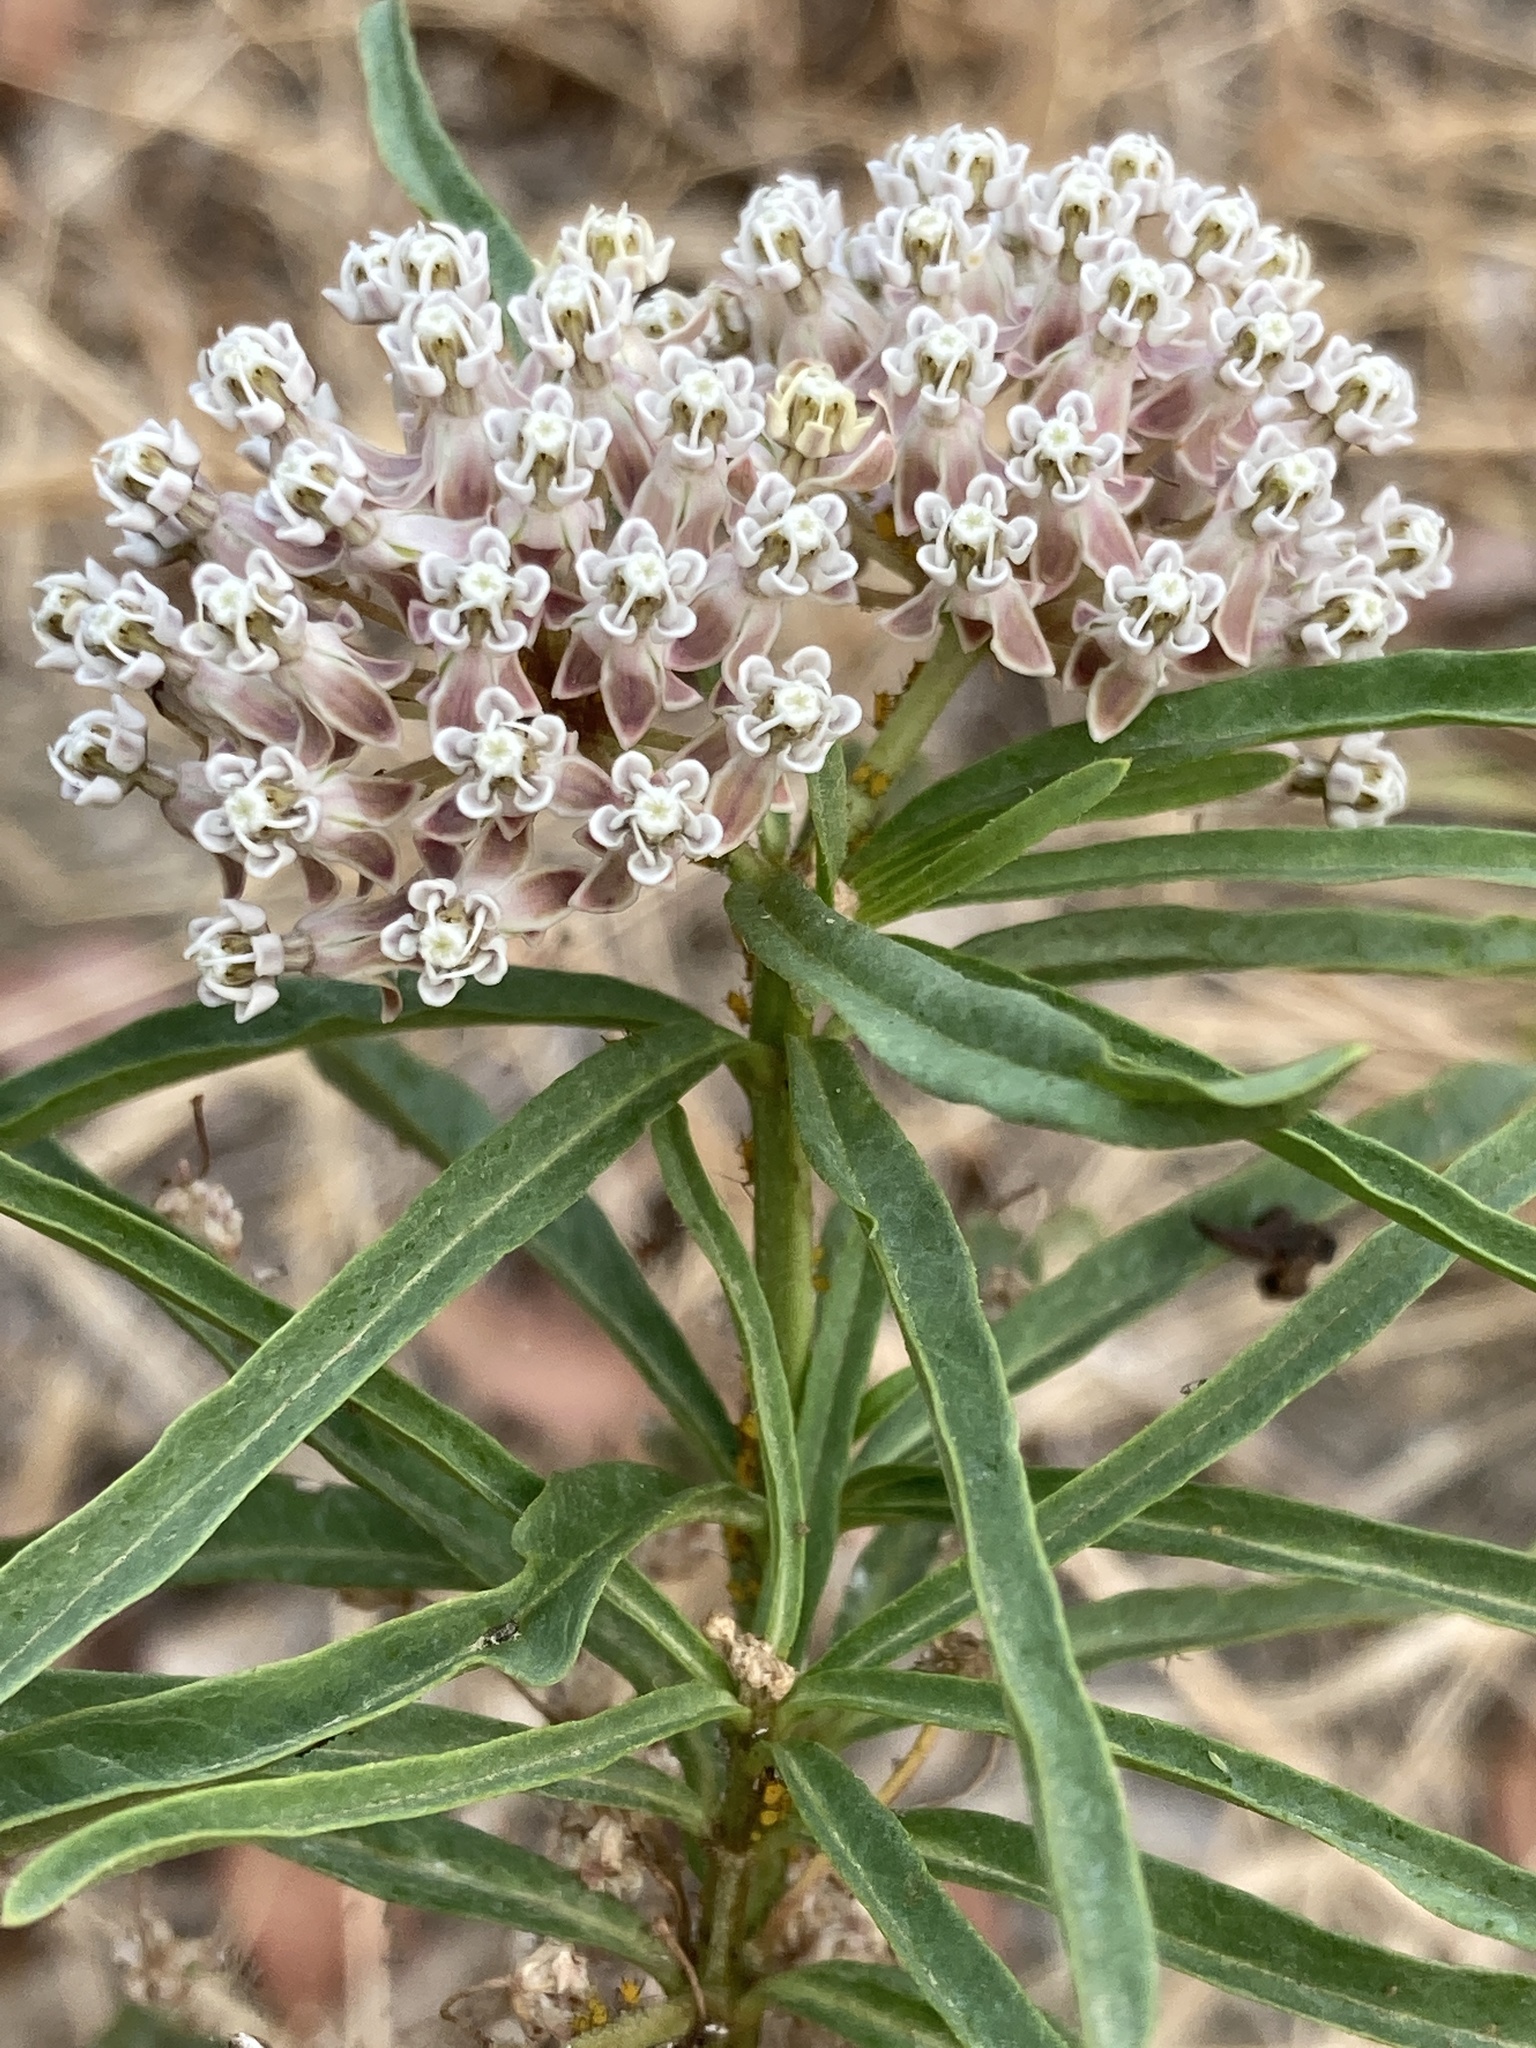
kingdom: Plantae
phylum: Tracheophyta
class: Magnoliopsida
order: Gentianales
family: Apocynaceae
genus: Asclepias
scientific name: Asclepias fascicularis
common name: Mexican milkweed
